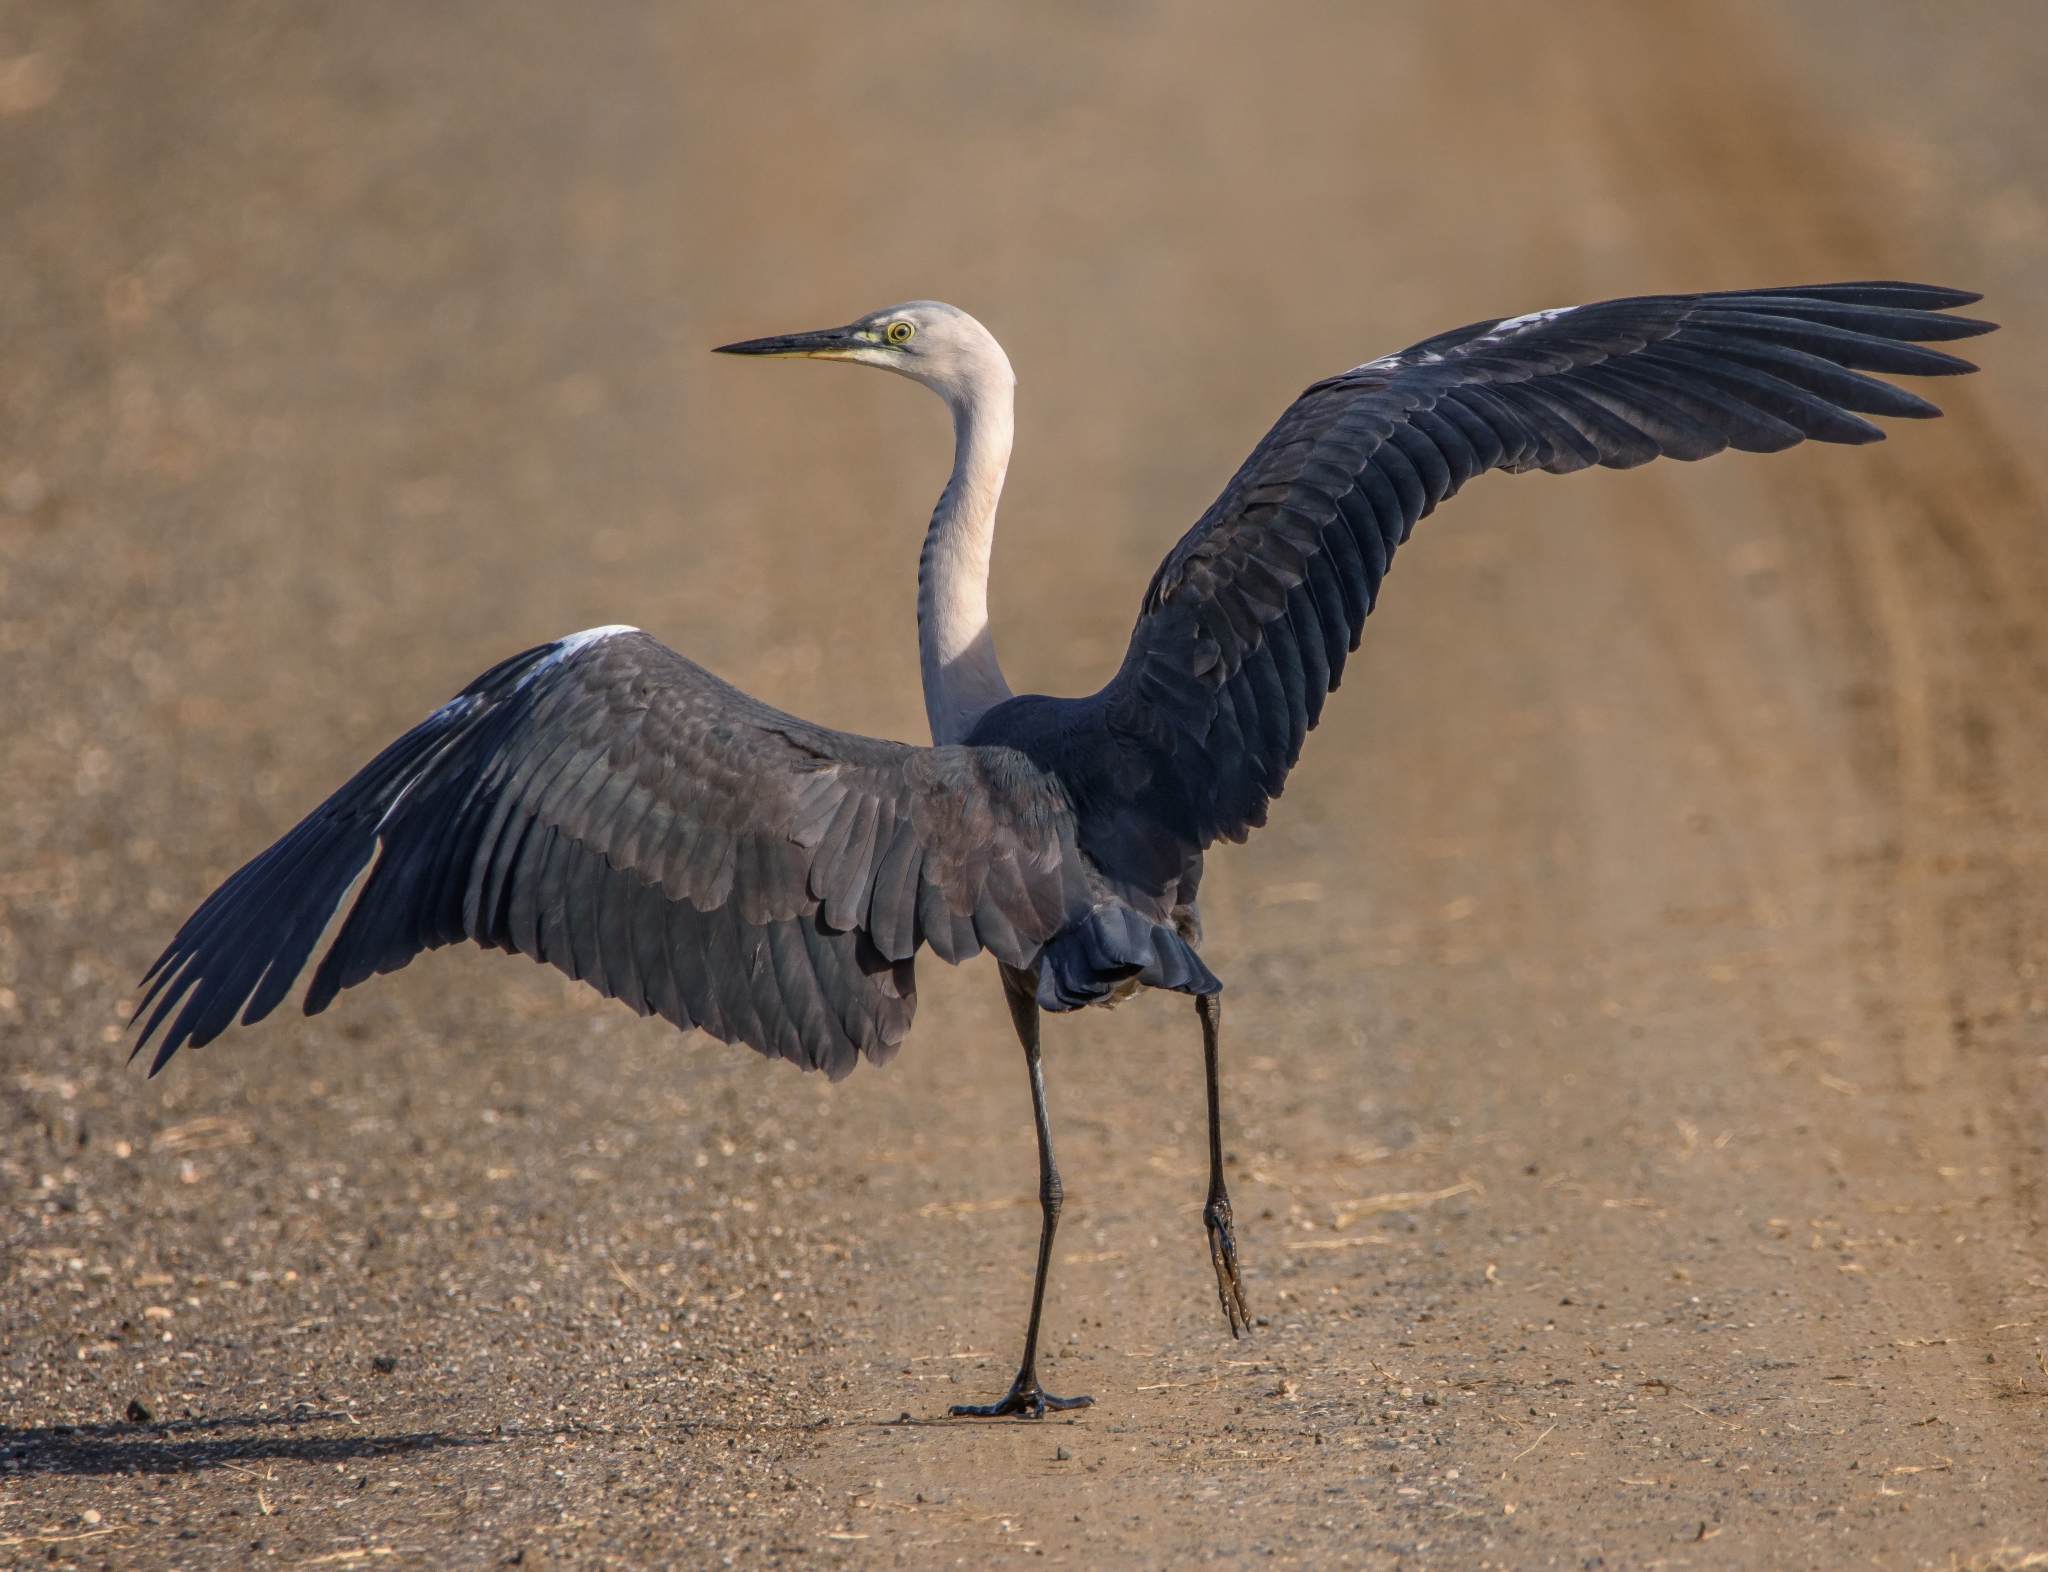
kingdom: Animalia
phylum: Chordata
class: Aves
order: Pelecaniformes
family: Ardeidae
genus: Ardea
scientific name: Ardea pacifica
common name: White-necked heron
